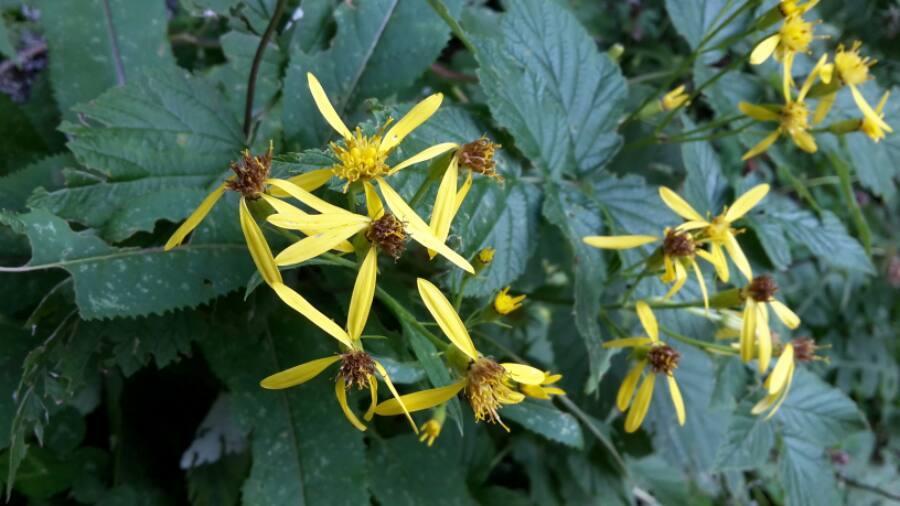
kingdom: Plantae
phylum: Tracheophyta
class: Magnoliopsida
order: Asterales
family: Asteraceae
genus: Senecio
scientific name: Senecio ovatus
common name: Wood ragwort
